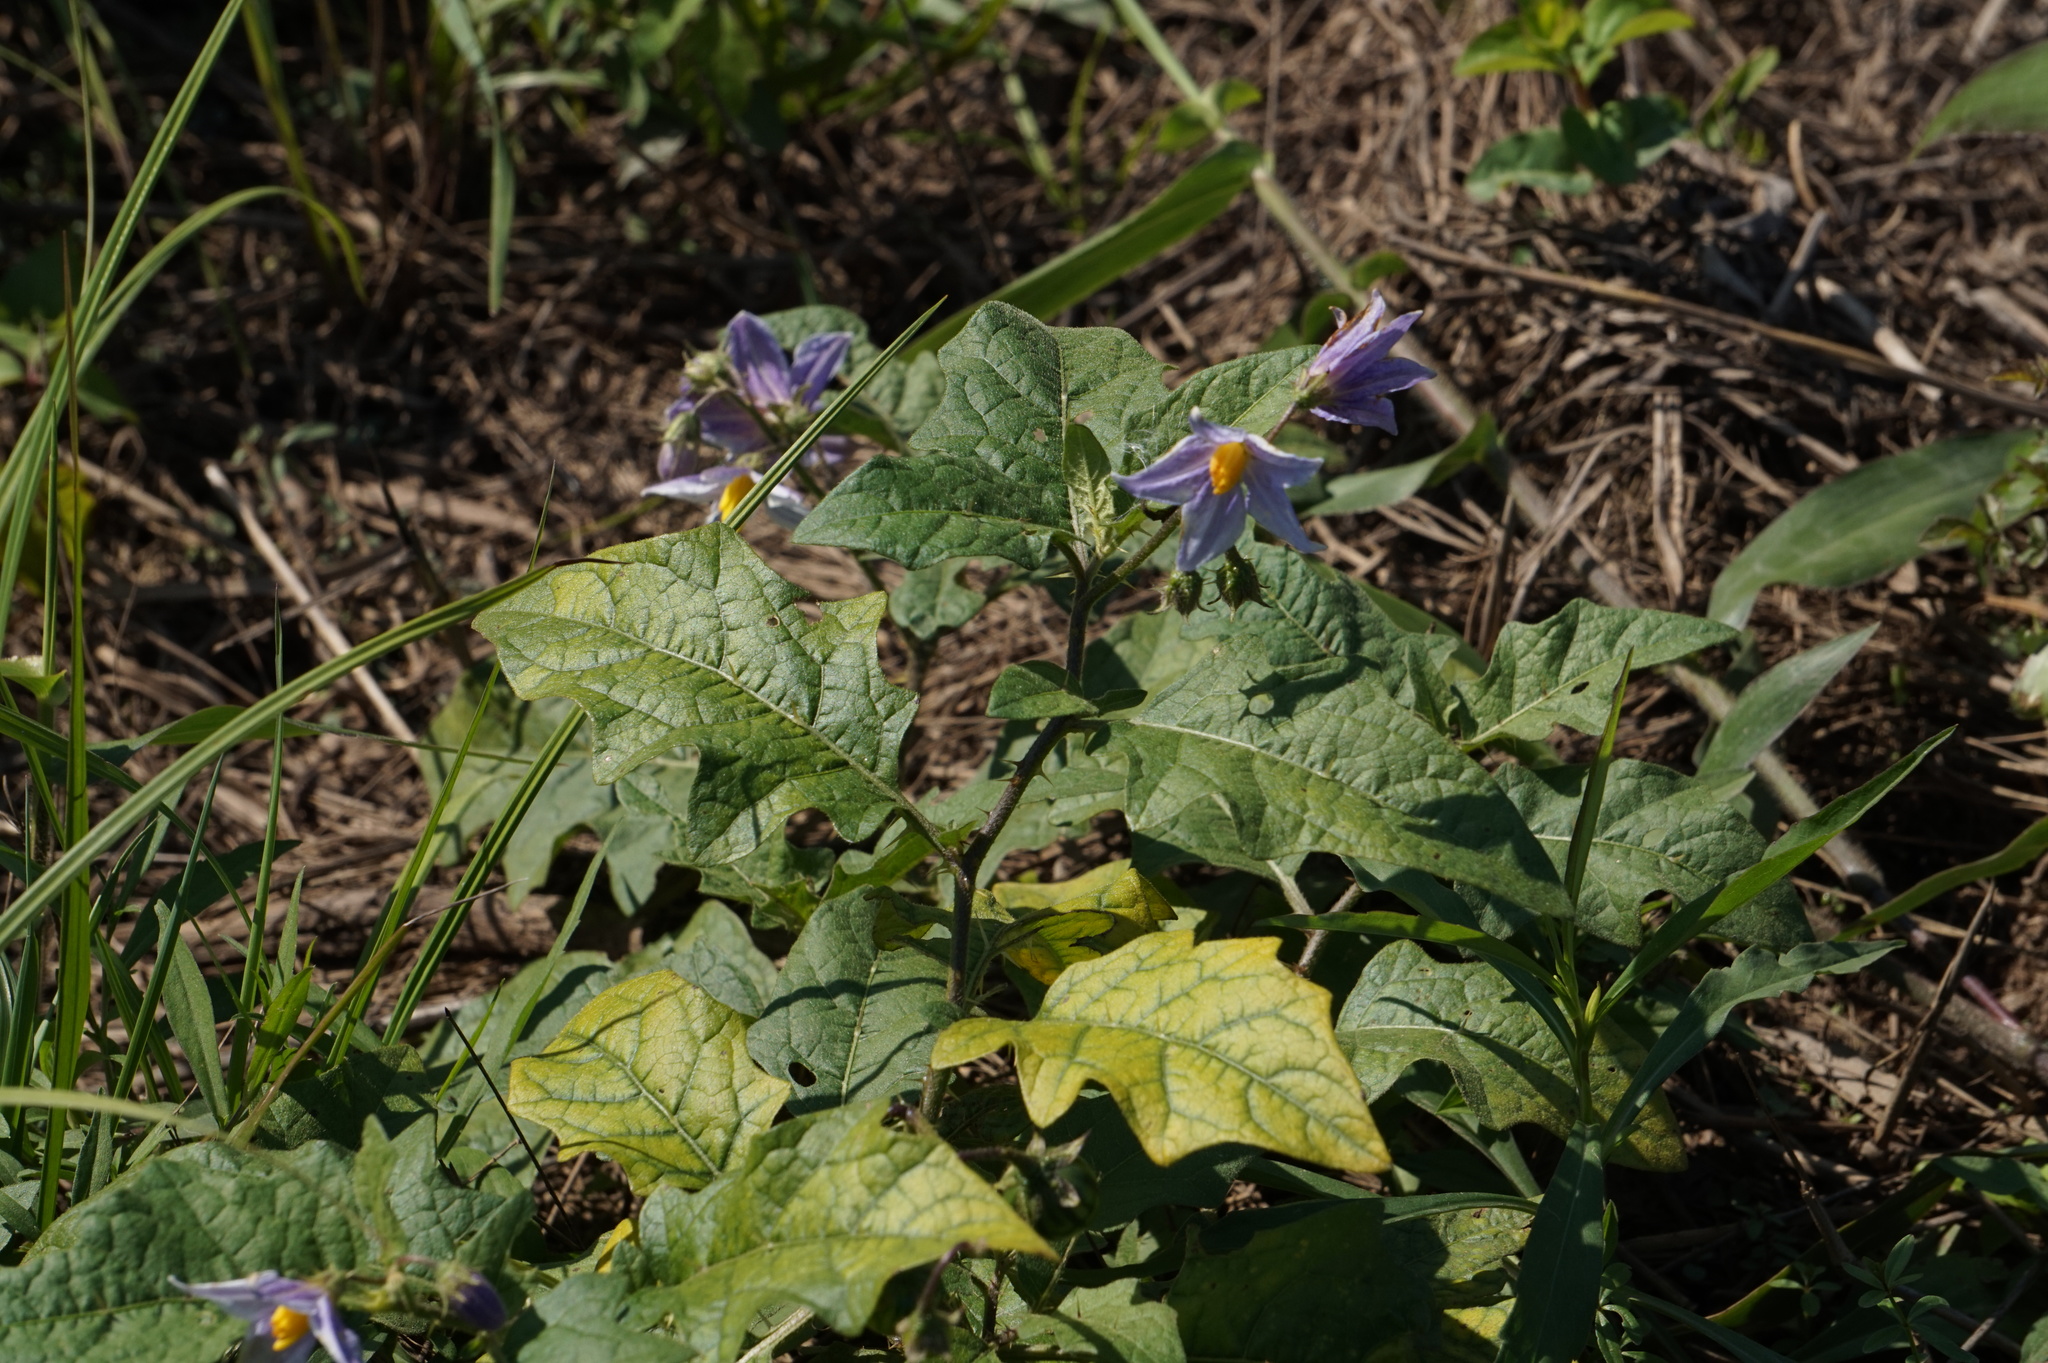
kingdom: Plantae
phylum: Tracheophyta
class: Magnoliopsida
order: Solanales
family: Solanaceae
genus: Solanum
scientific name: Solanum carolinense
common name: Horse-nettle
